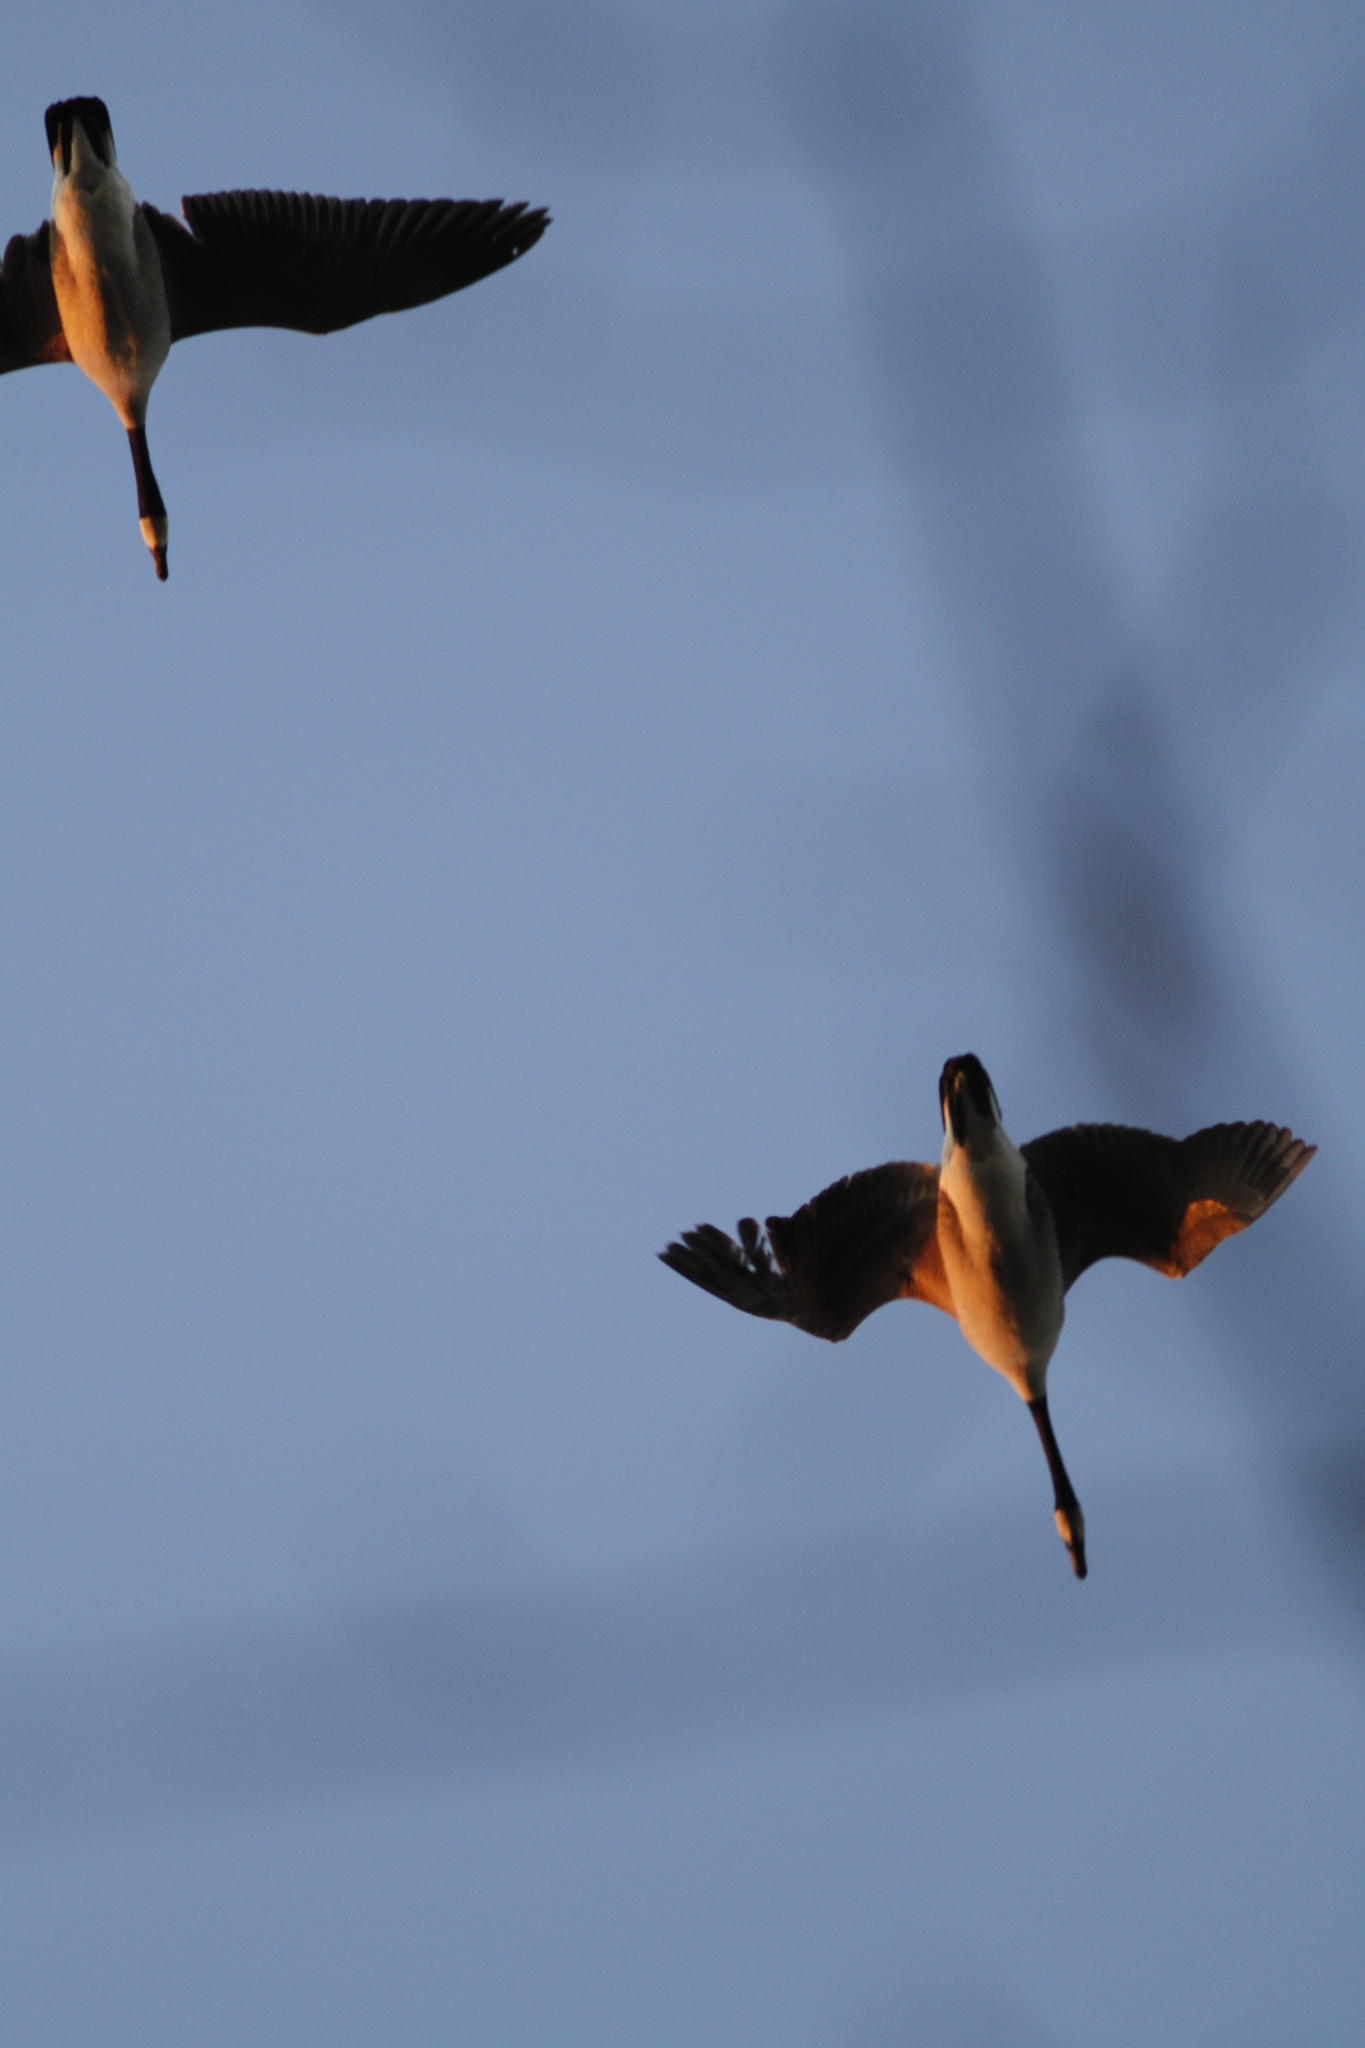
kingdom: Animalia
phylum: Chordata
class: Aves
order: Anseriformes
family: Anatidae
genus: Branta
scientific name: Branta canadensis
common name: Canada goose
